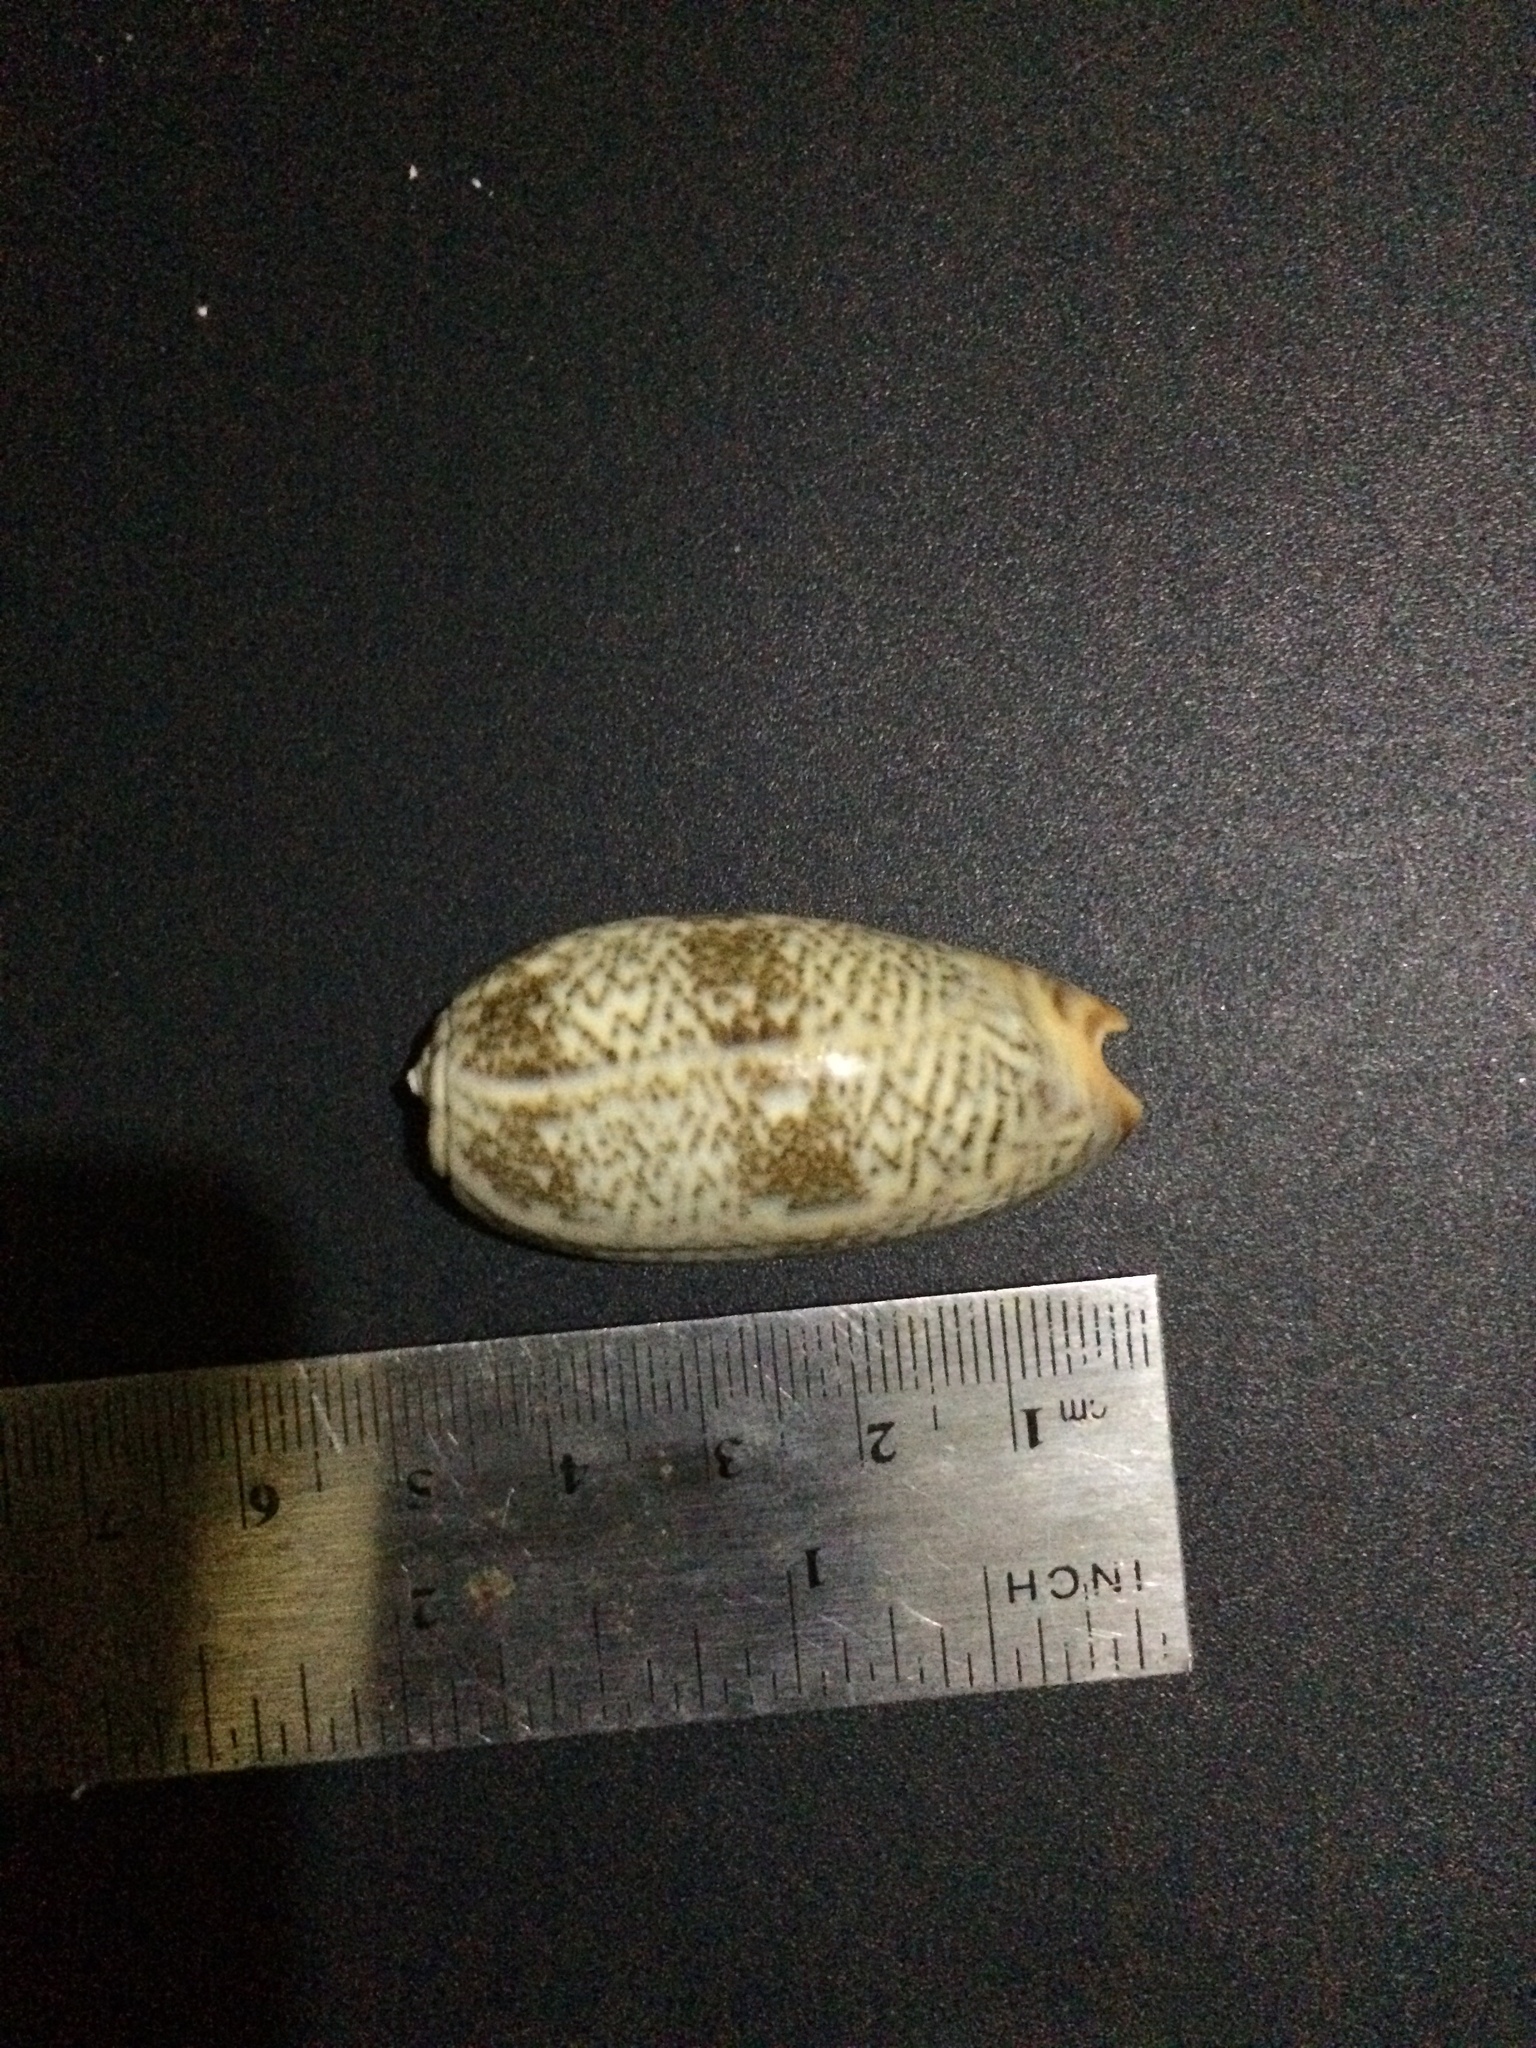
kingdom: Animalia
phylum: Mollusca
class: Gastropoda
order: Neogastropoda
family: Olividae
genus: Oliva
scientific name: Oliva reticulata
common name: Blood olive
